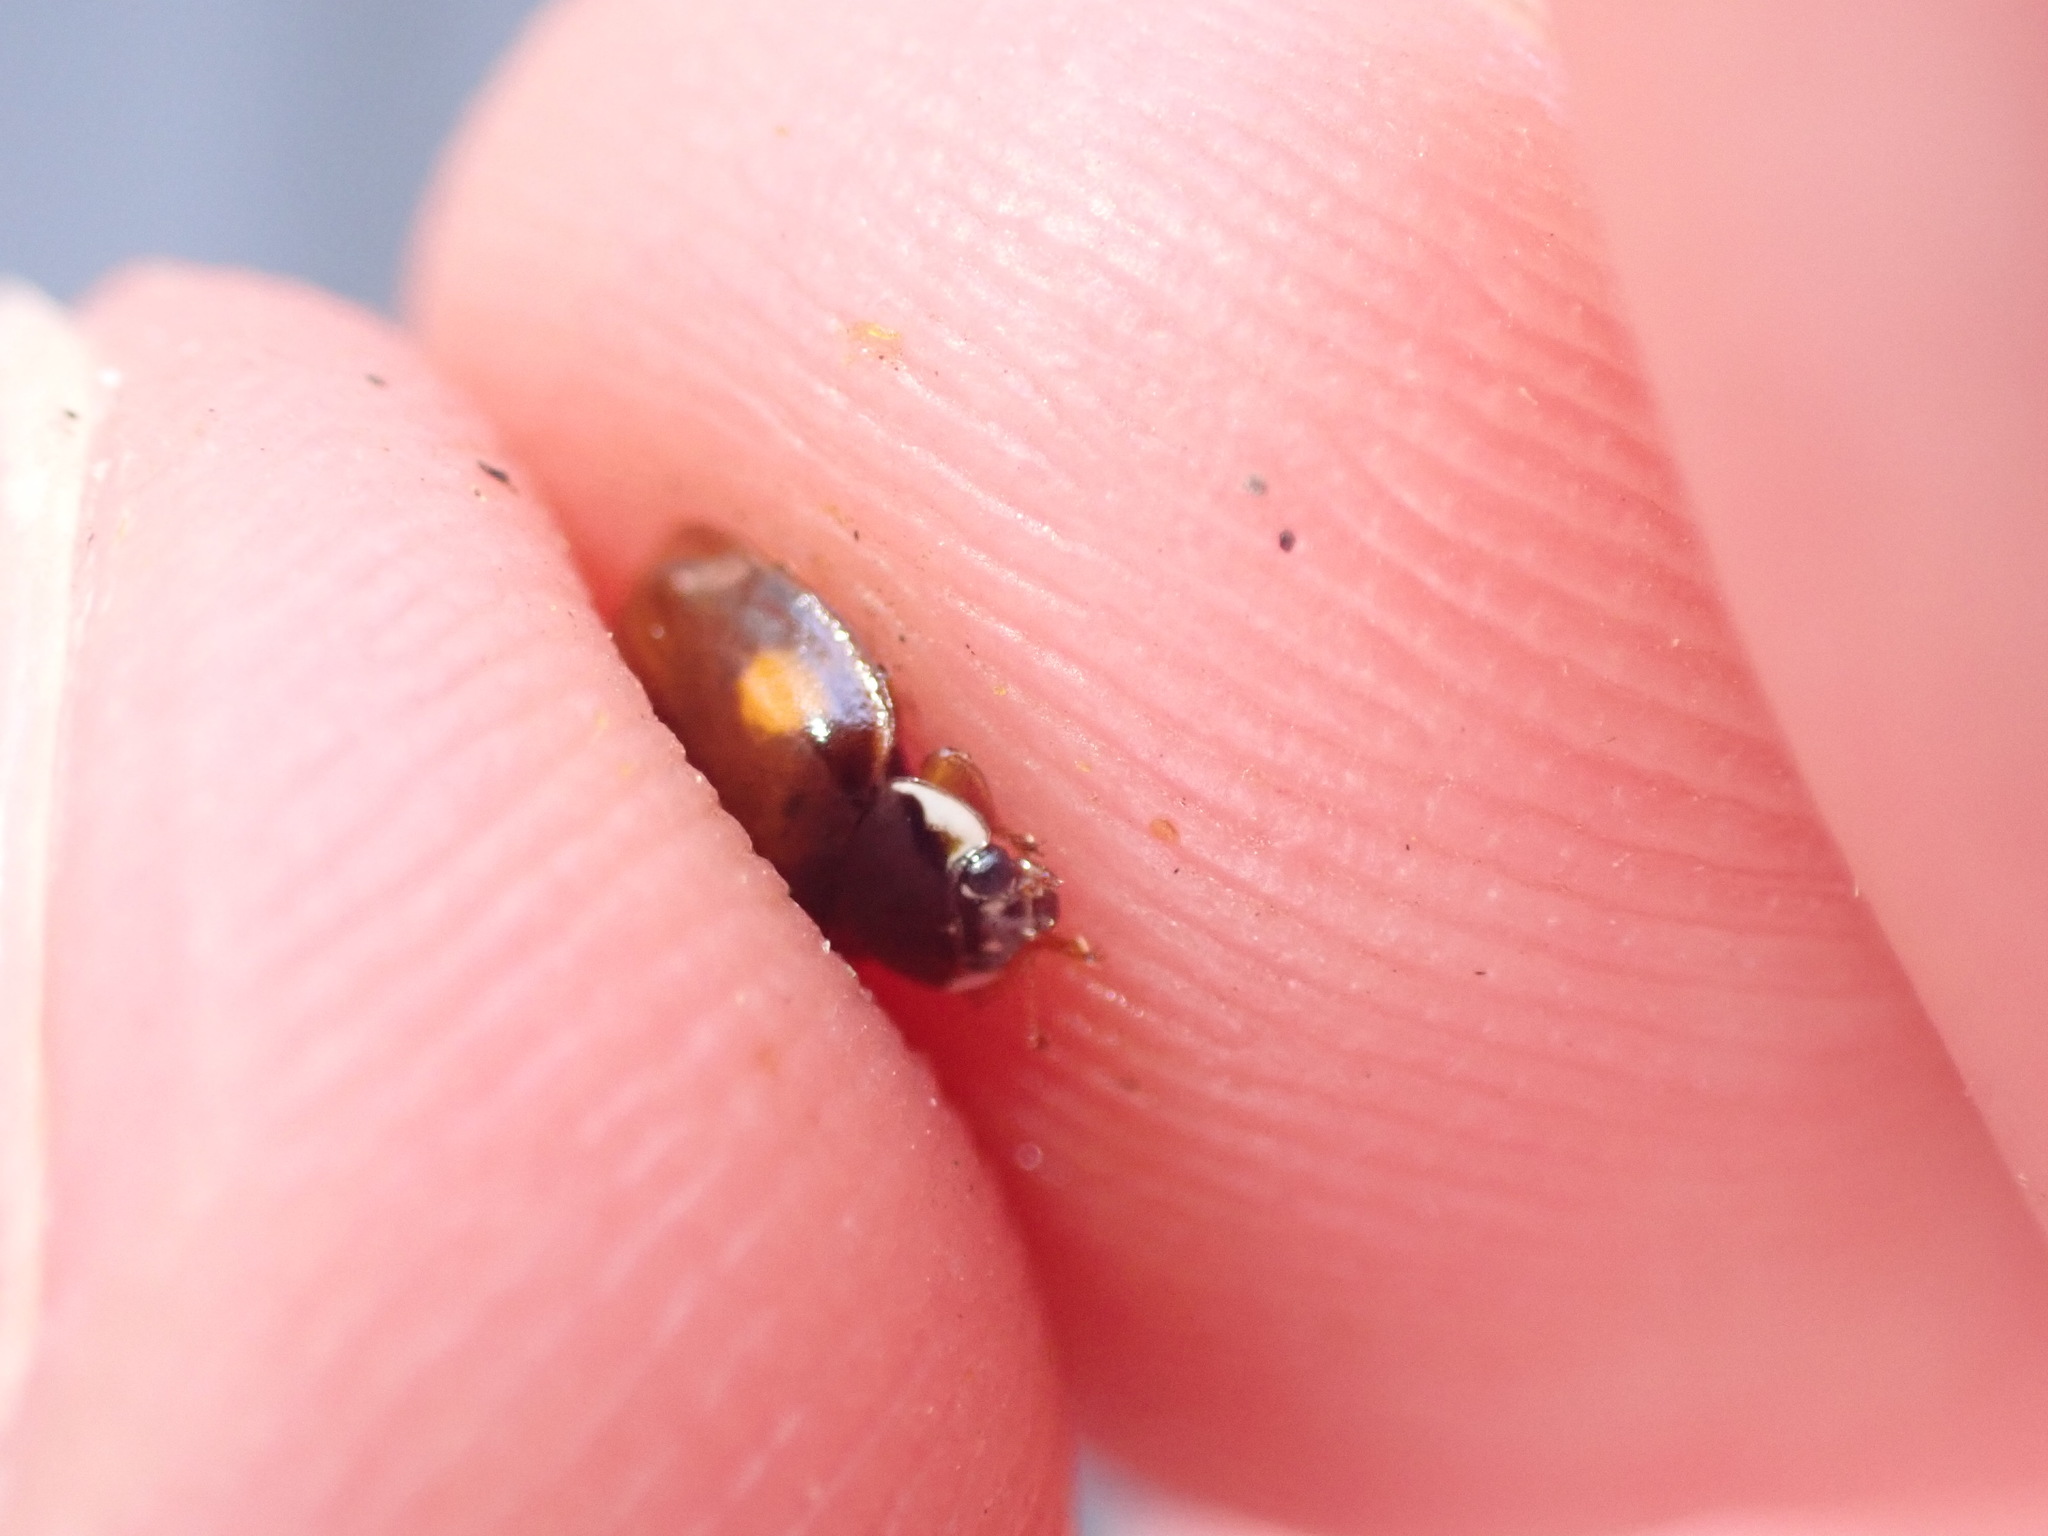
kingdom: Animalia
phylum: Arthropoda
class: Insecta
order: Coleoptera
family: Coccinellidae
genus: Adalia
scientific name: Adalia decempunctata
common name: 10-spot ladybird
